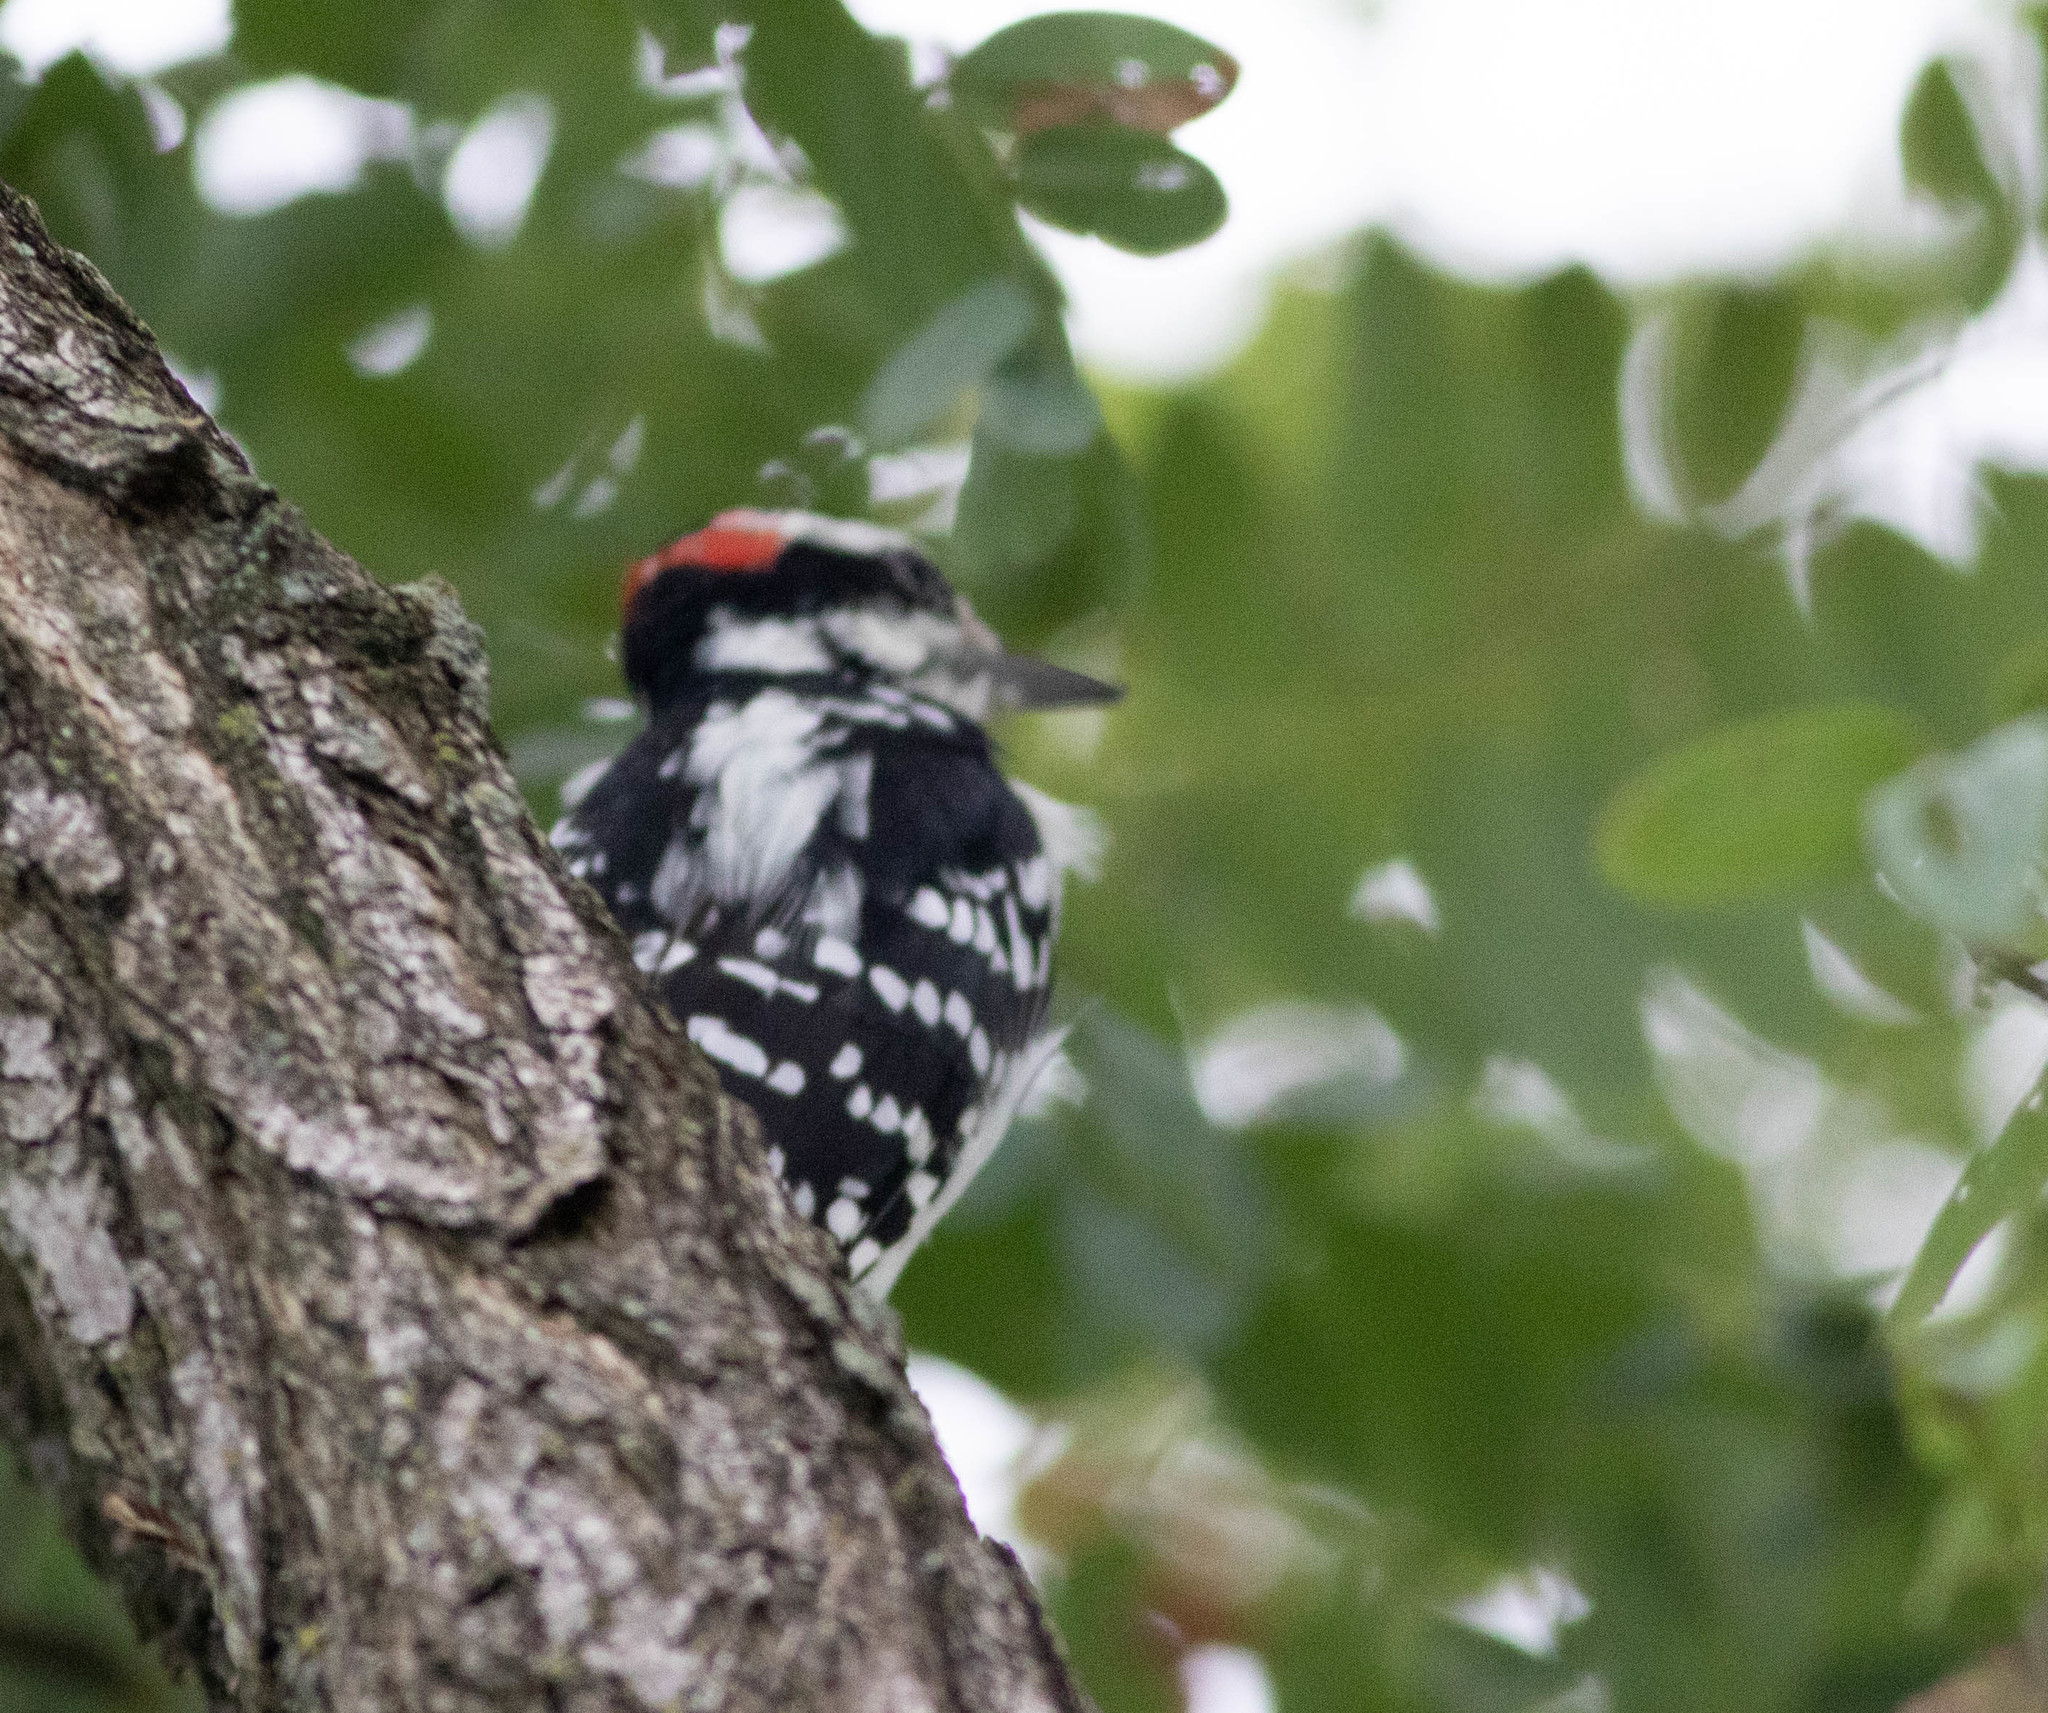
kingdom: Animalia
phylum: Chordata
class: Aves
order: Piciformes
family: Picidae
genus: Leuconotopicus
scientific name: Leuconotopicus villosus
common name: Hairy woodpecker
